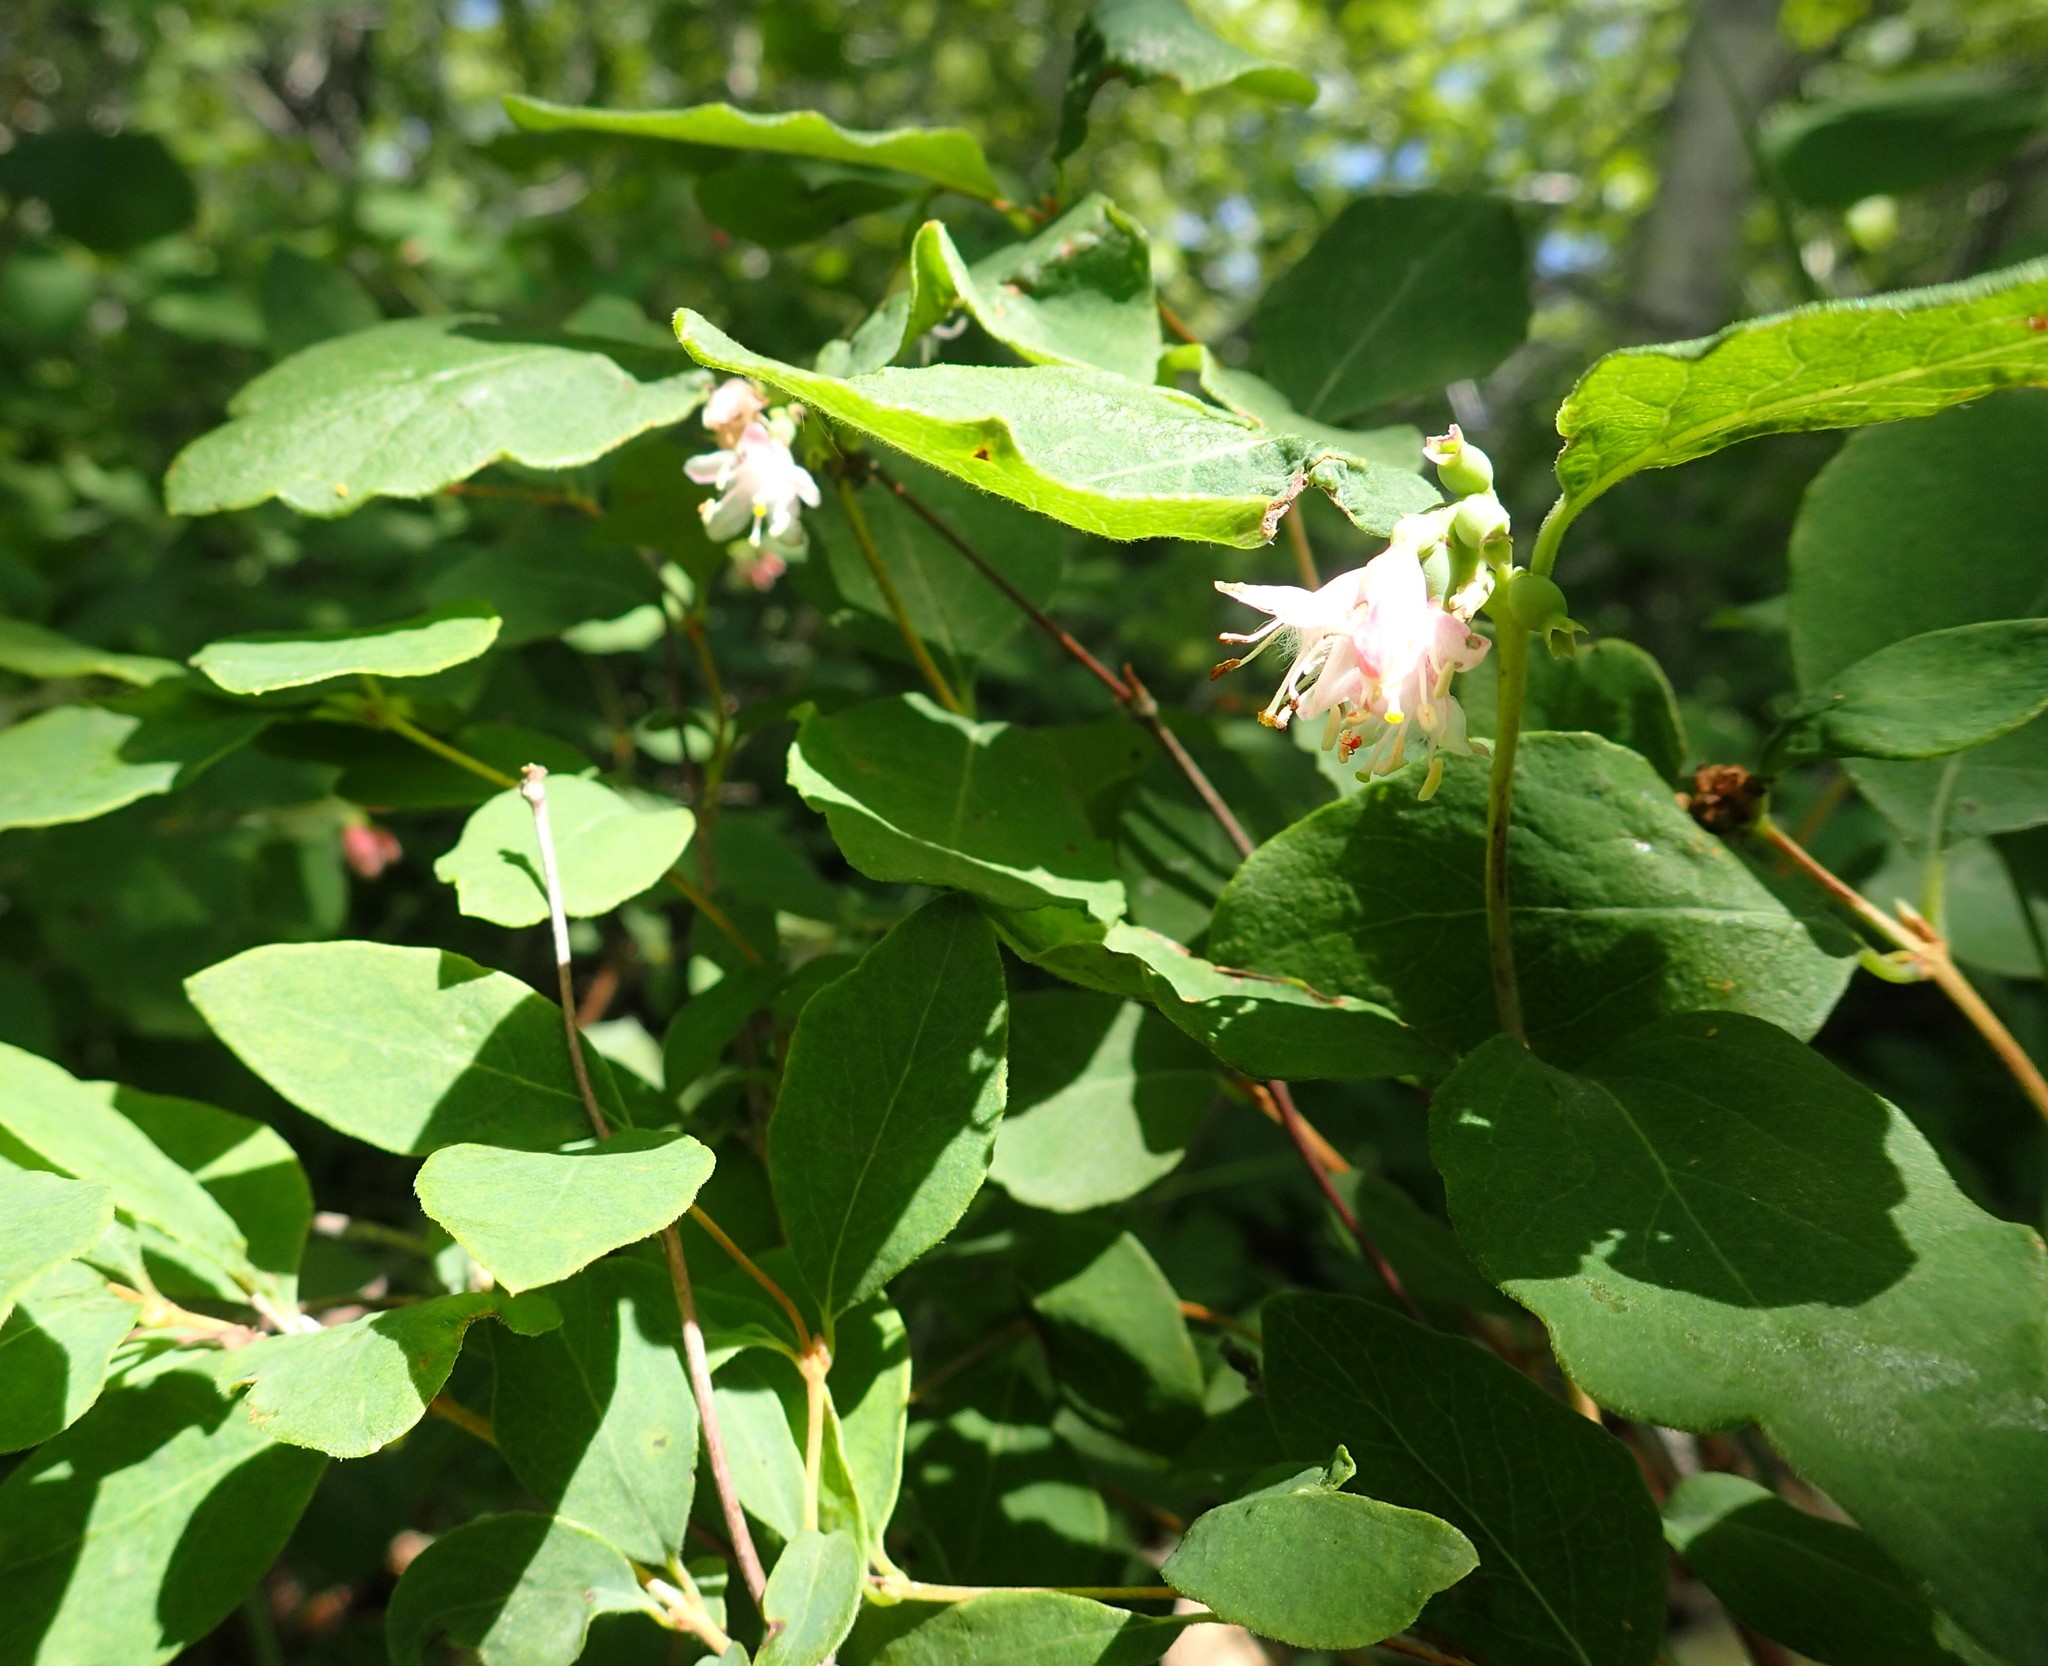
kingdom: Plantae
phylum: Tracheophyta
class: Magnoliopsida
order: Dipsacales
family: Caprifoliaceae
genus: Symphoricarpos
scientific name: Symphoricarpos albus
